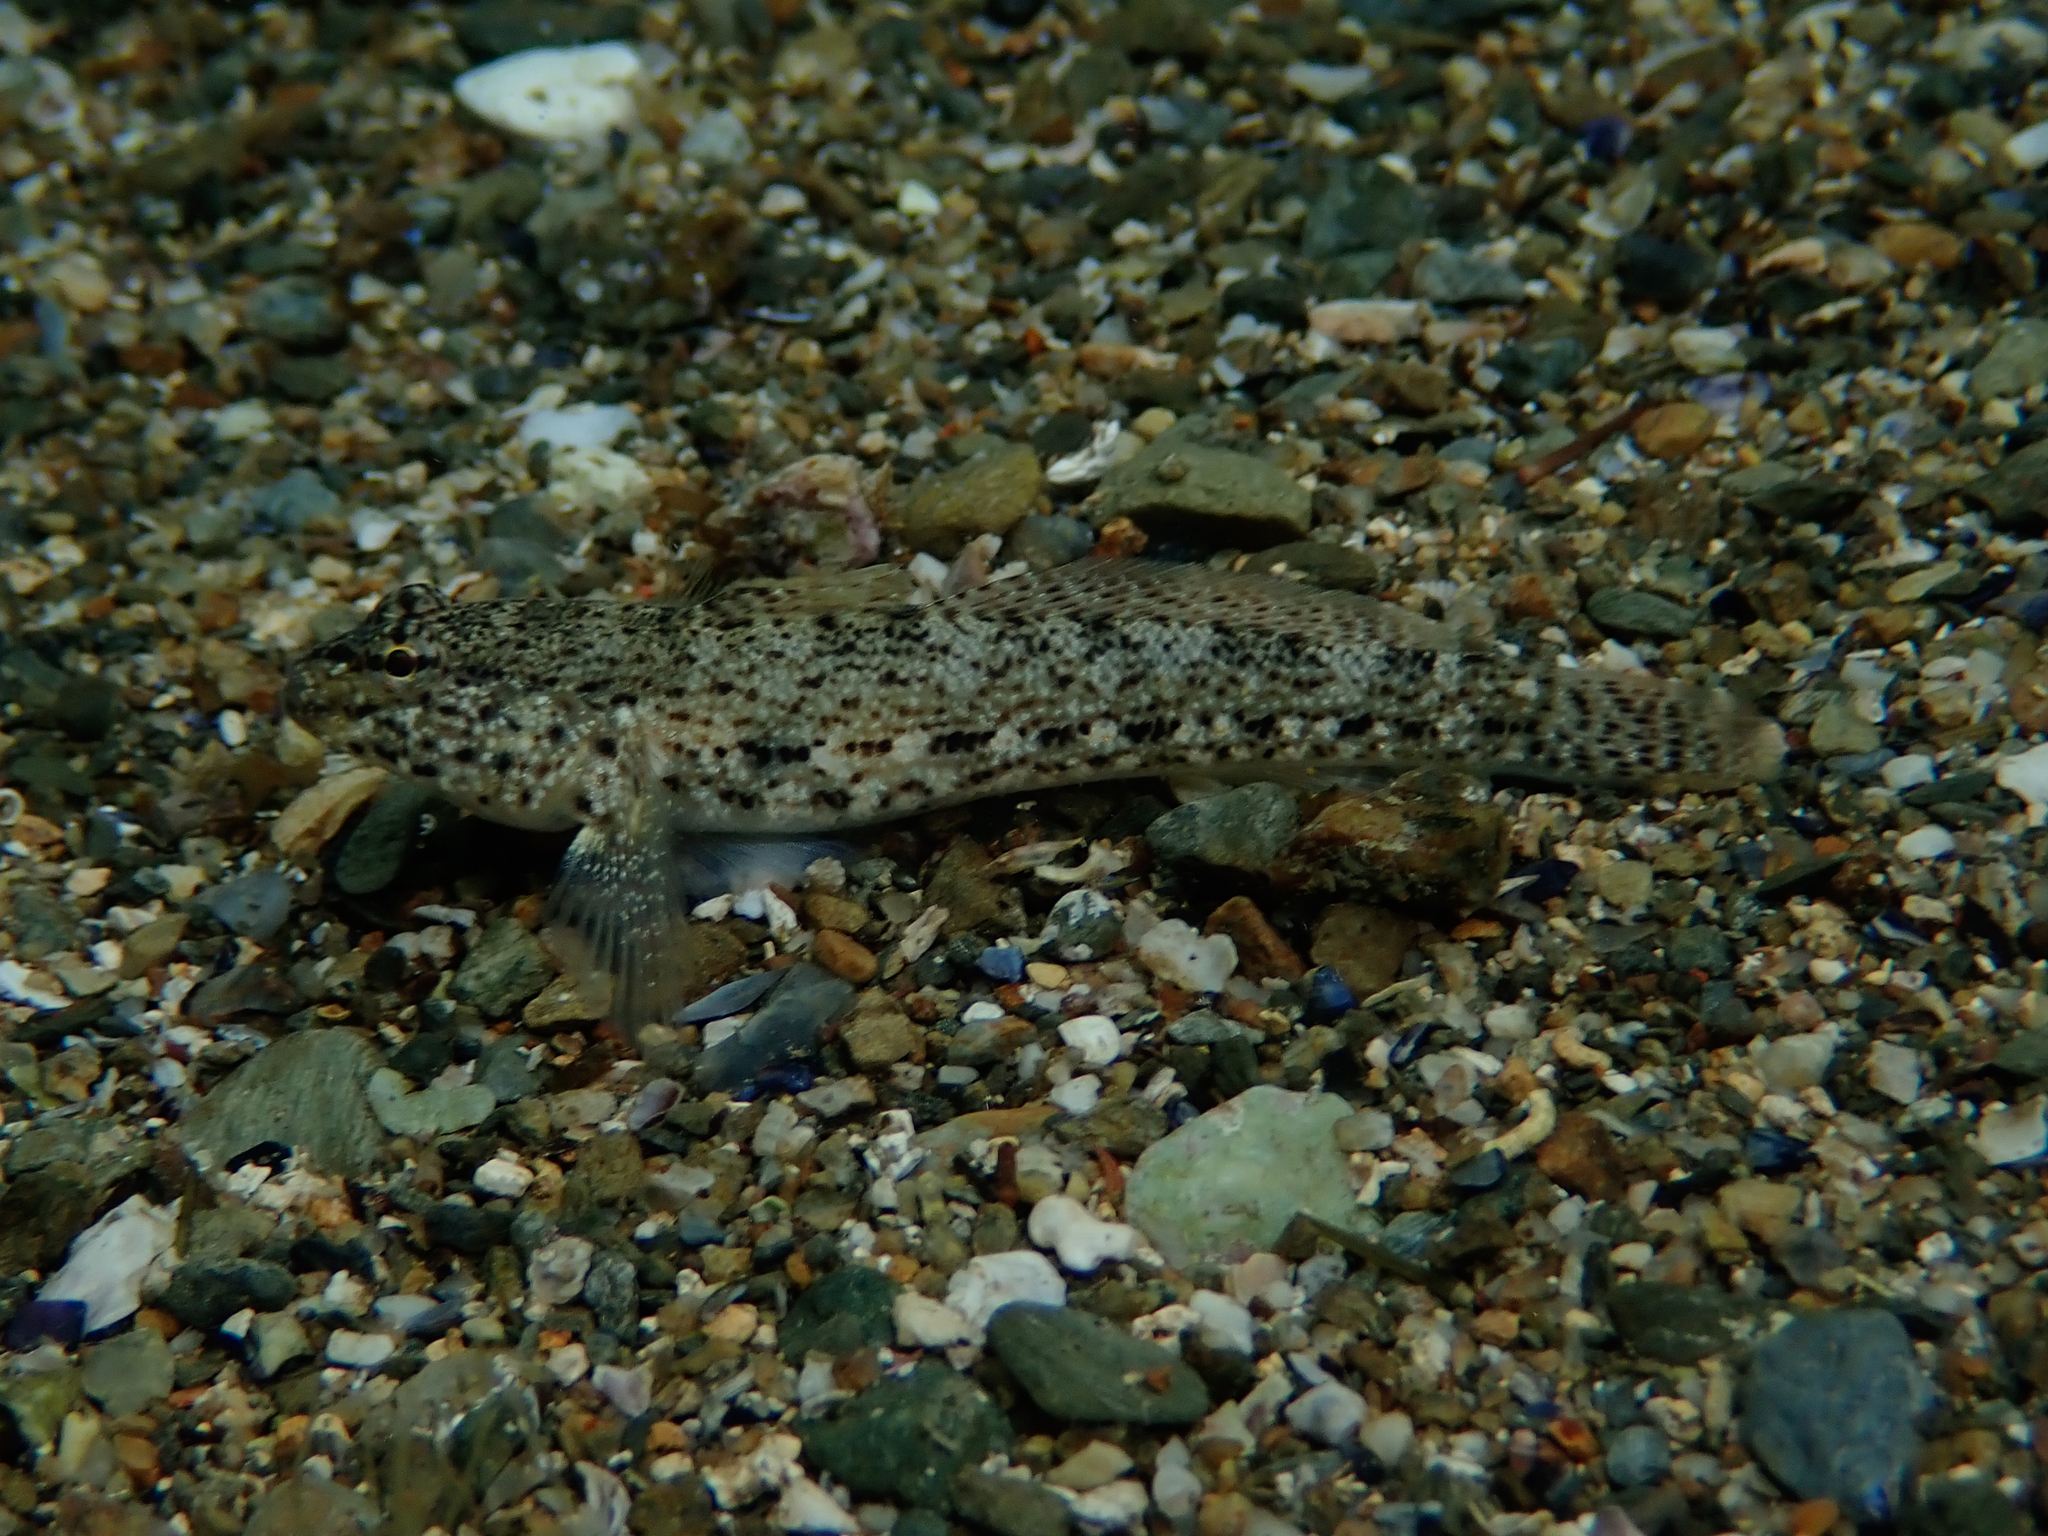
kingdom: Animalia
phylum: Chordata
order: Perciformes
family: Gobiidae
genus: Gobius
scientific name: Gobius incognitus
